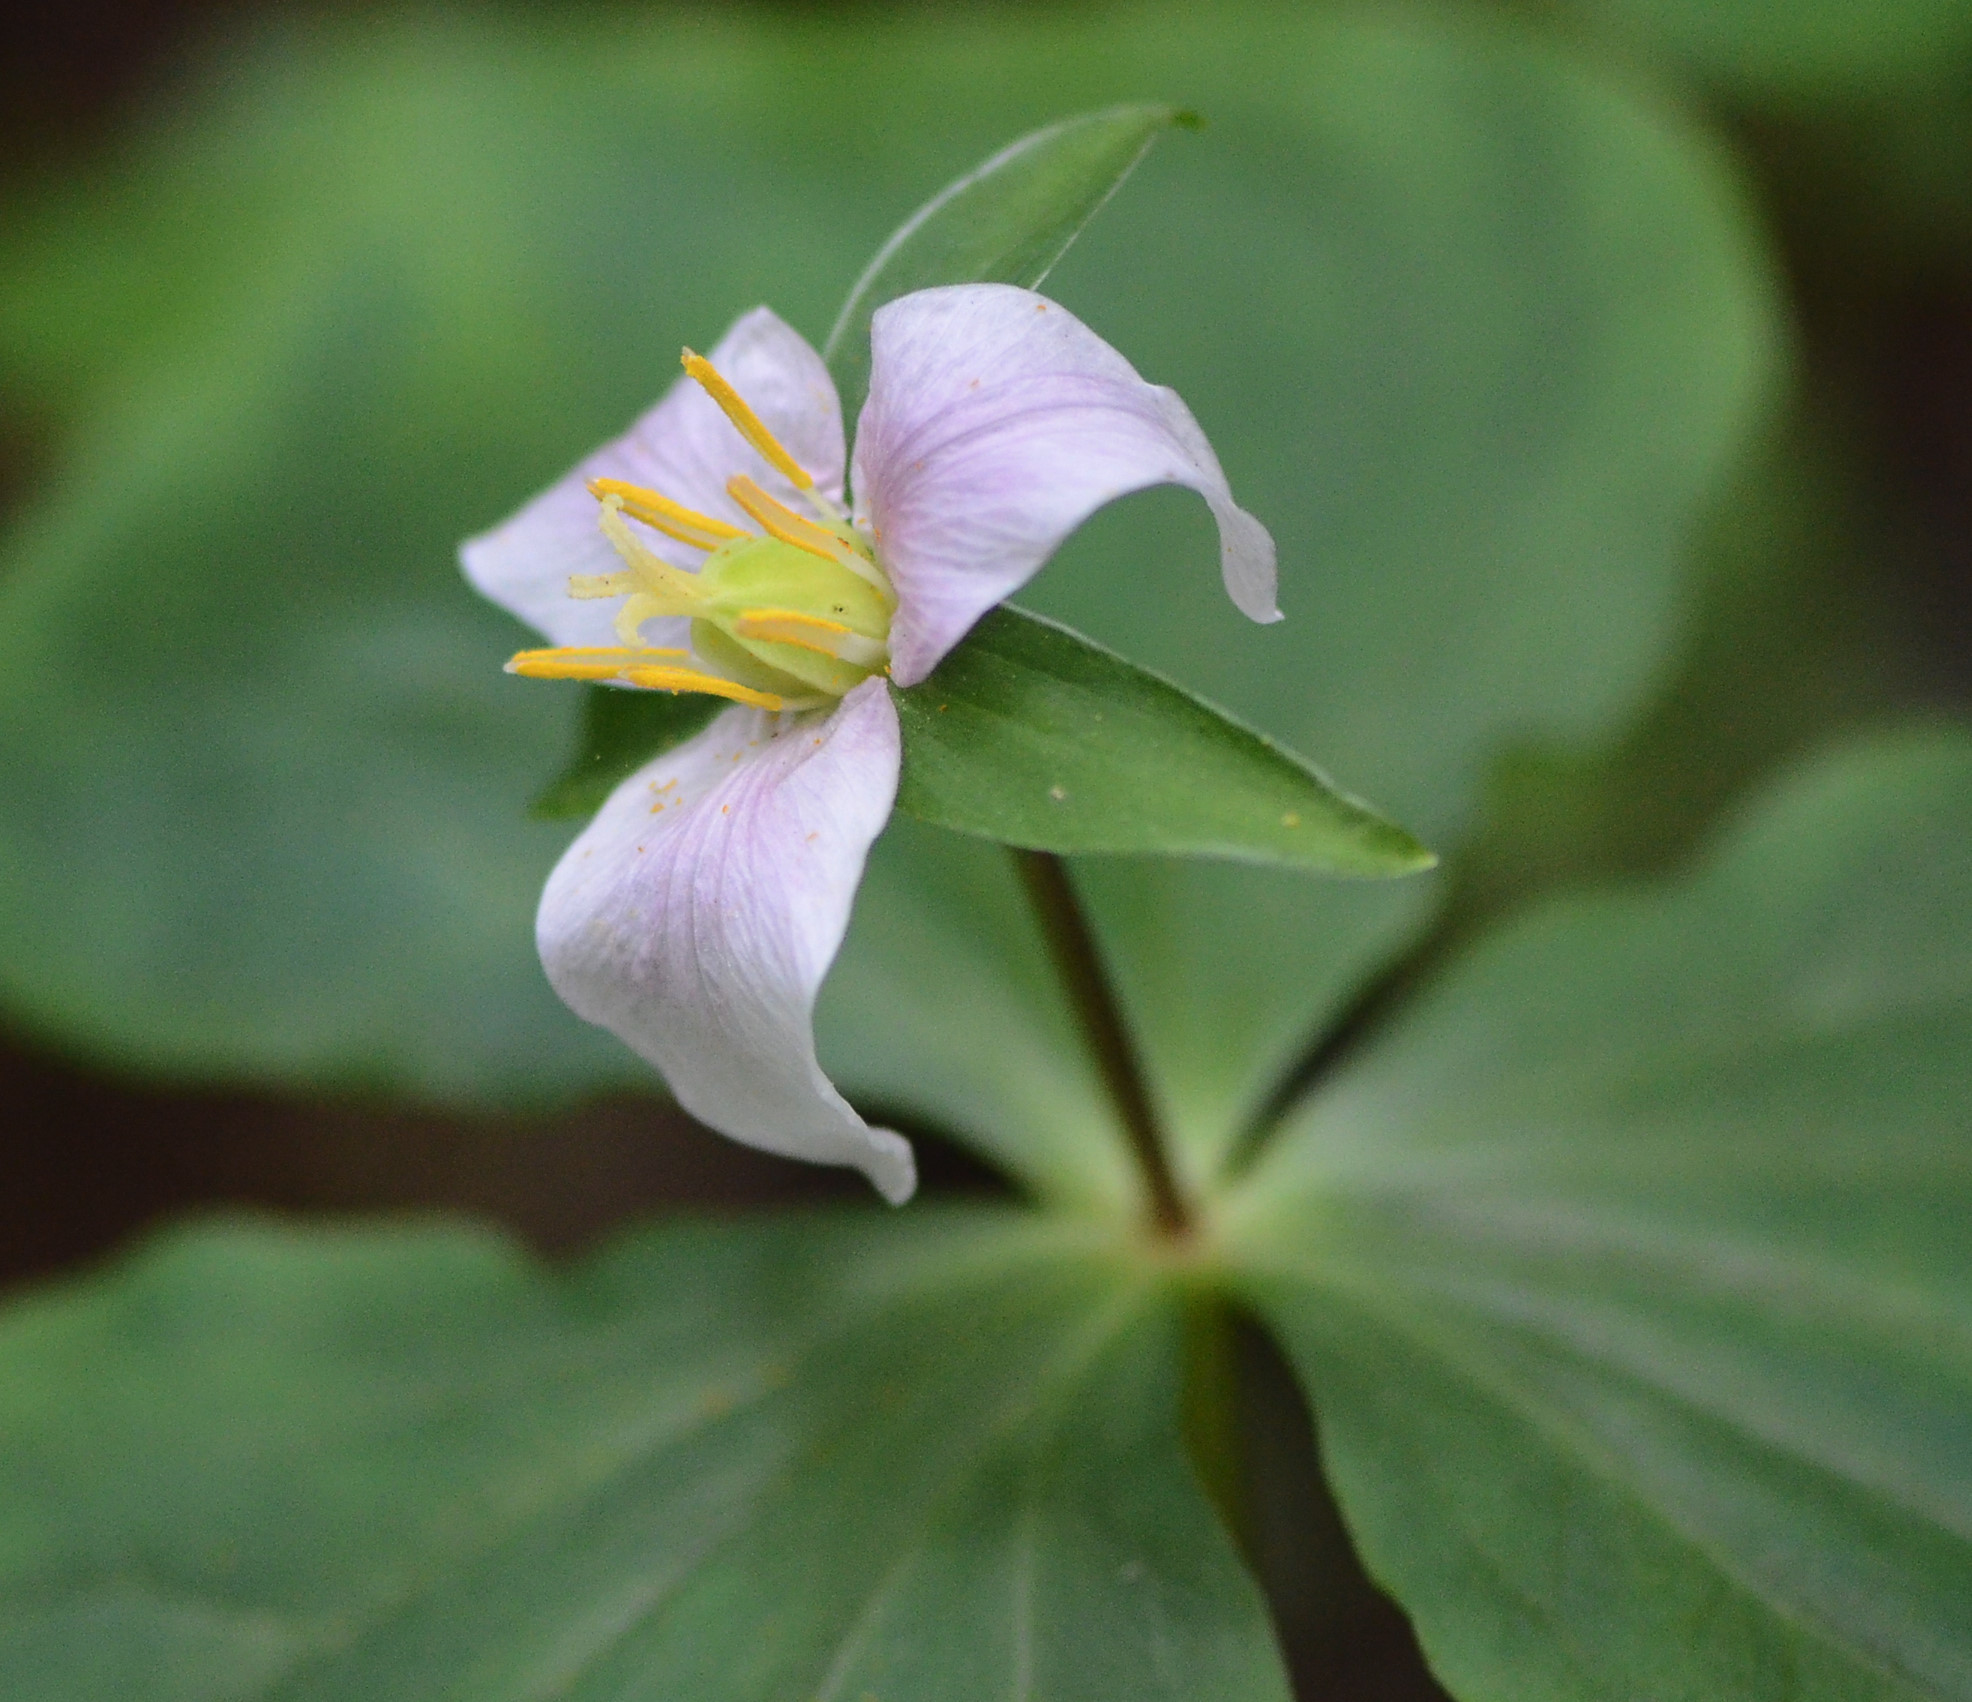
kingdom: Plantae
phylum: Tracheophyta
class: Liliopsida
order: Liliales
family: Melanthiaceae
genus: Trillium
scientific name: Trillium ovatum
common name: Pacific trillium
